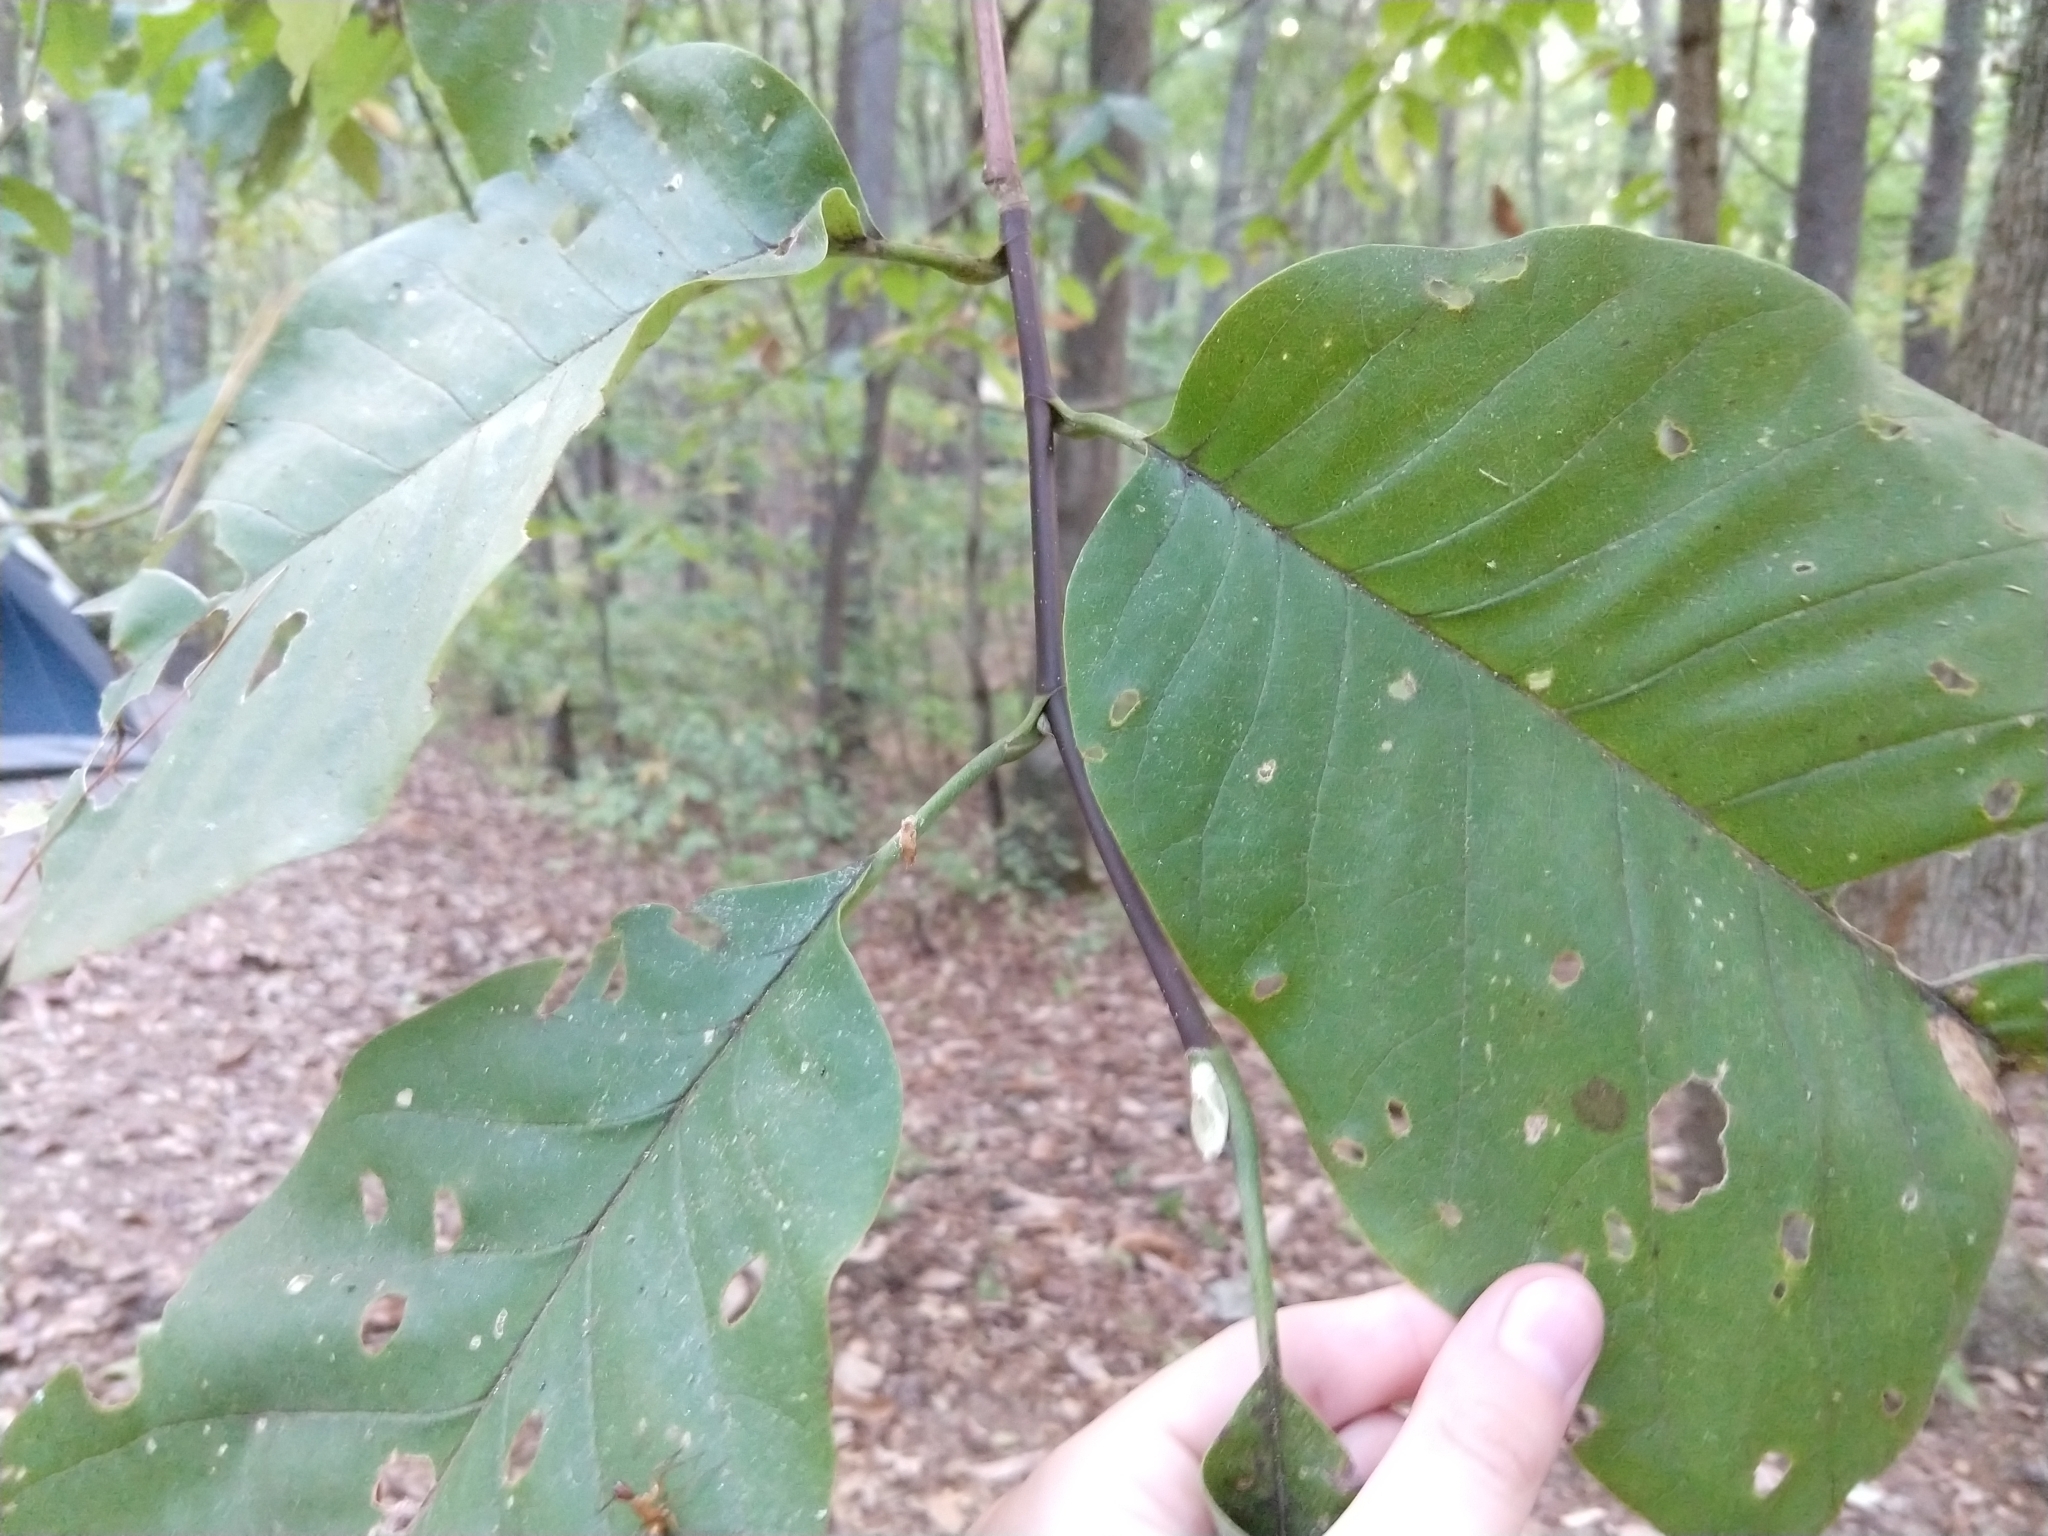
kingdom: Plantae
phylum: Tracheophyta
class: Magnoliopsida
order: Magnoliales
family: Magnoliaceae
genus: Magnolia
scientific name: Magnolia acuminata
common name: Cucumber magnolia
